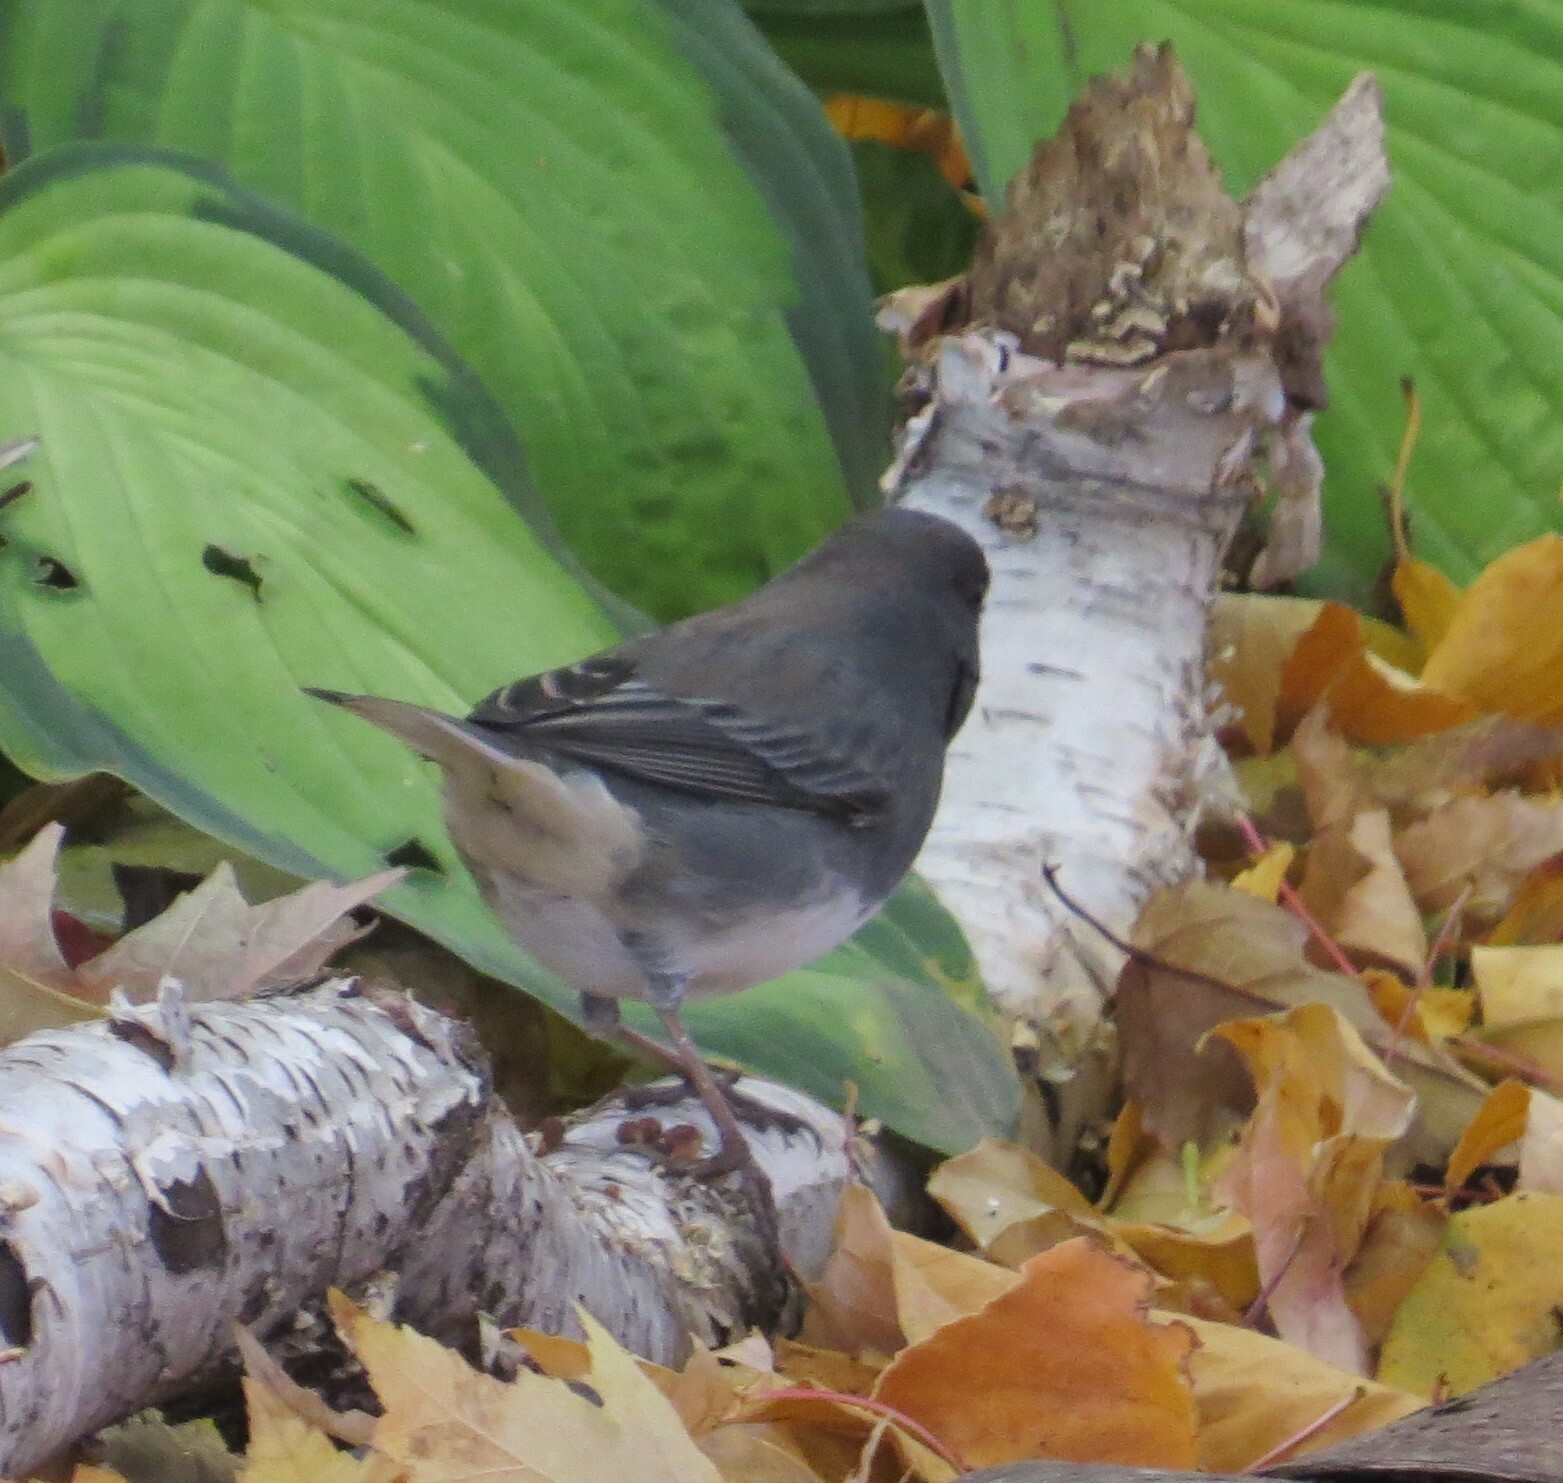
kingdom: Animalia
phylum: Chordata
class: Aves
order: Passeriformes
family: Passerellidae
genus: Junco
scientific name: Junco hyemalis
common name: Dark-eyed junco
